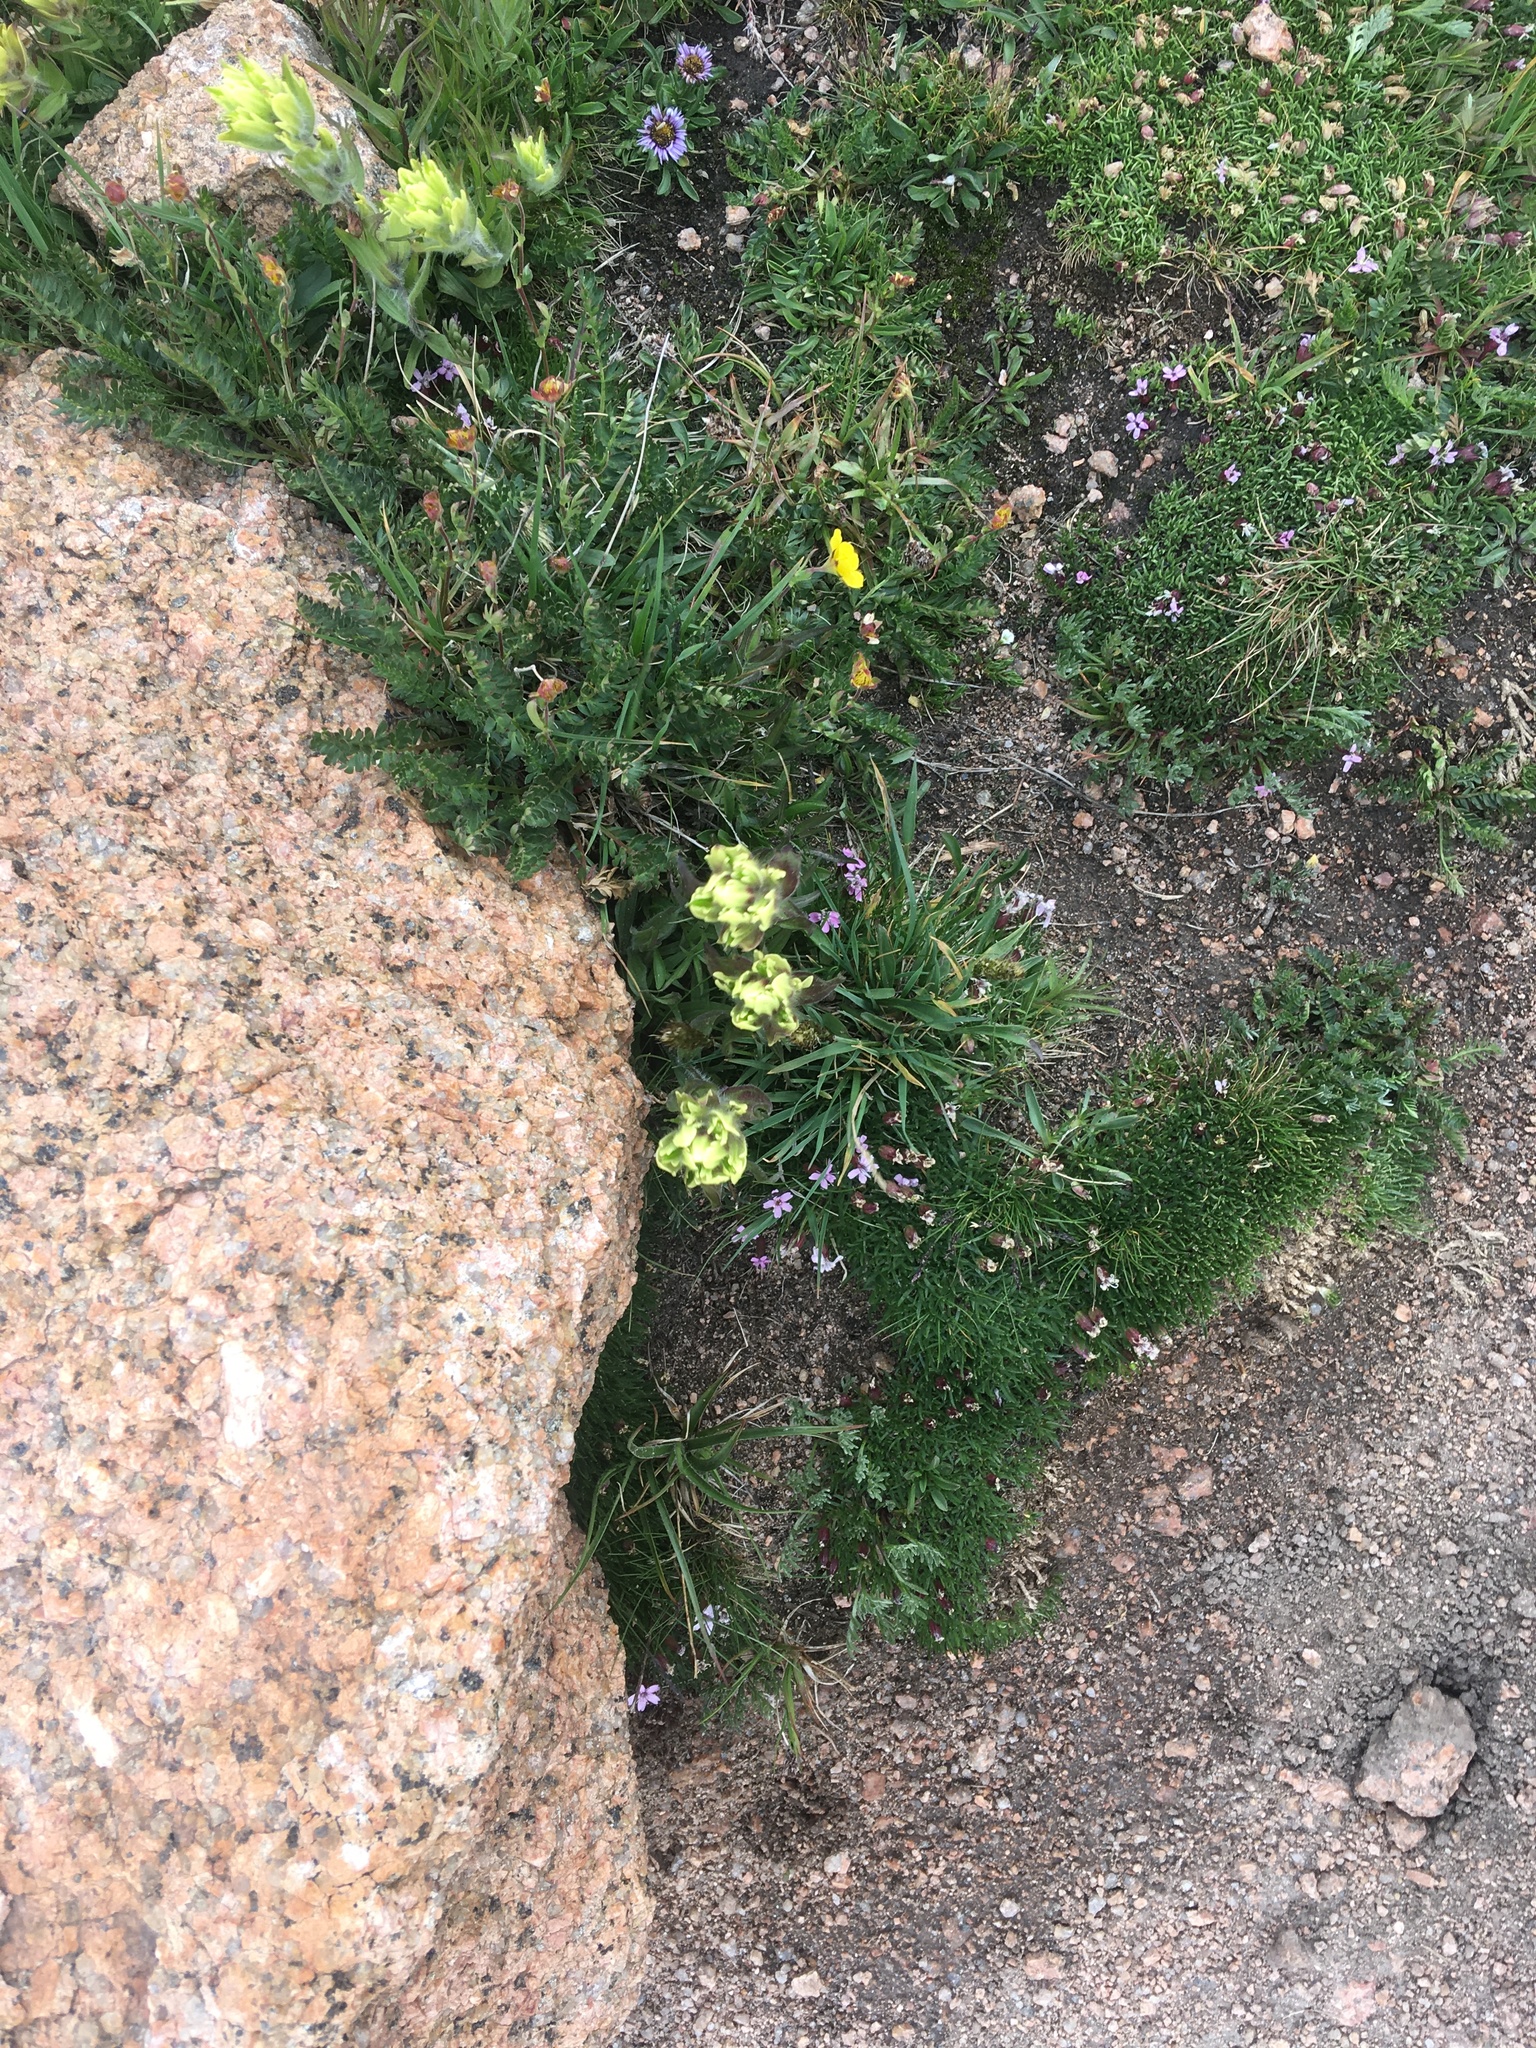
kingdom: Plantae
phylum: Tracheophyta
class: Magnoliopsida
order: Lamiales
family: Orobanchaceae
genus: Castilleja
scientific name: Castilleja occidentalis
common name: Western paintbrush
